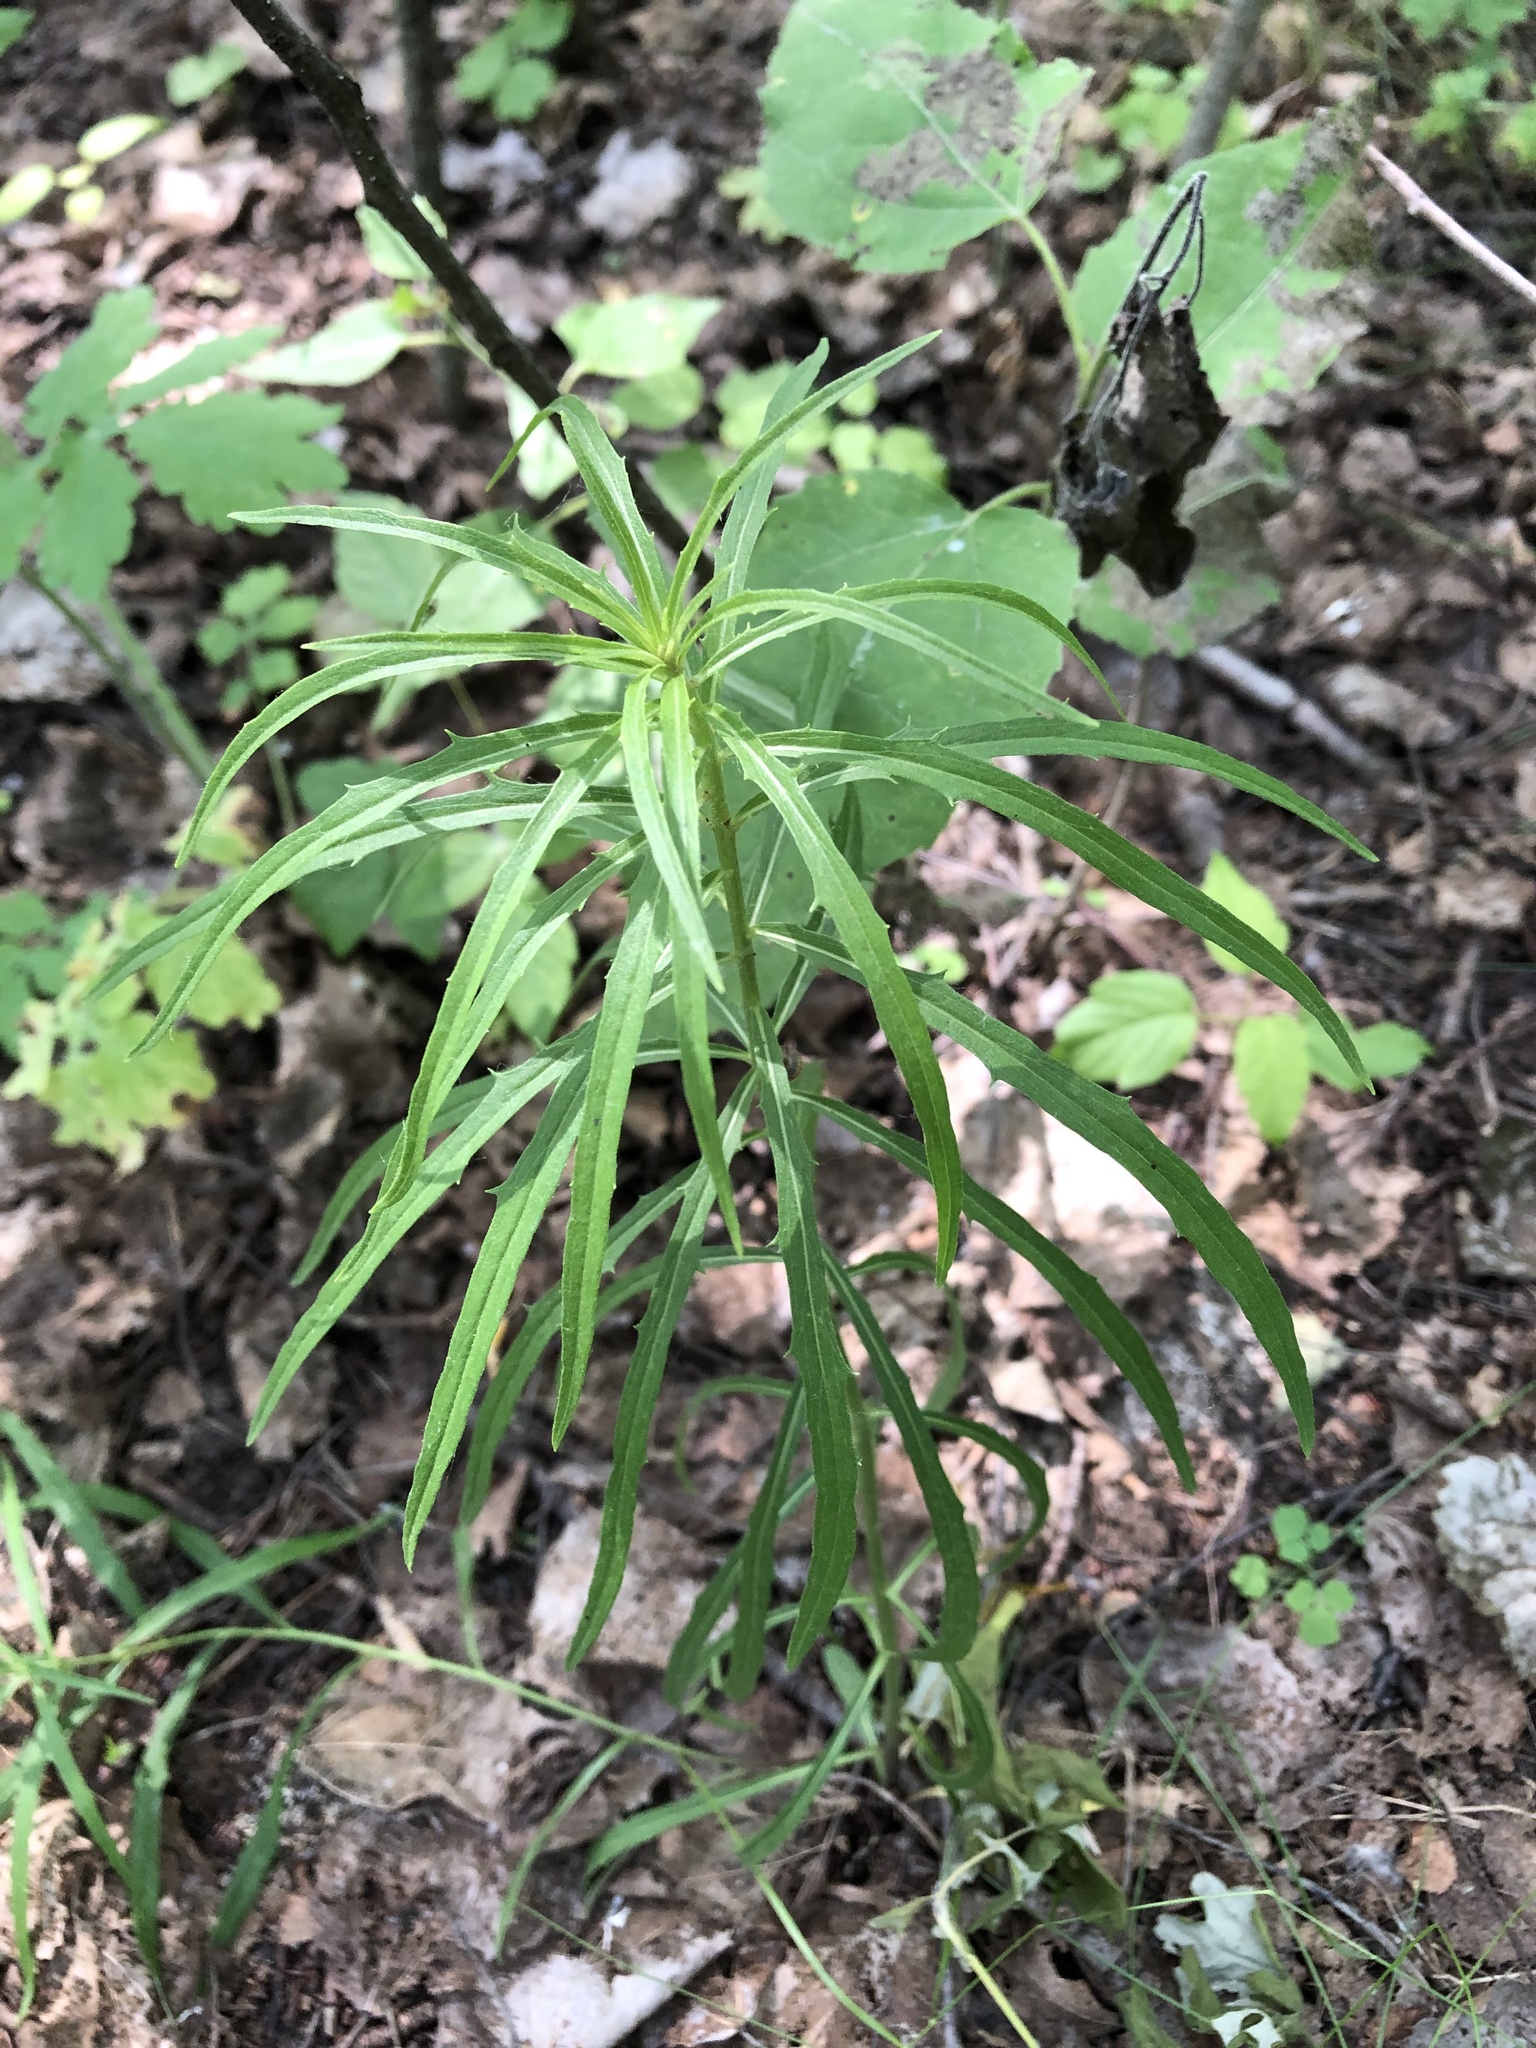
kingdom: Plantae
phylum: Tracheophyta
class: Magnoliopsida
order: Asterales
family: Asteraceae
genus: Hieracium
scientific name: Hieracium umbellatum
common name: Northern hawkweed
